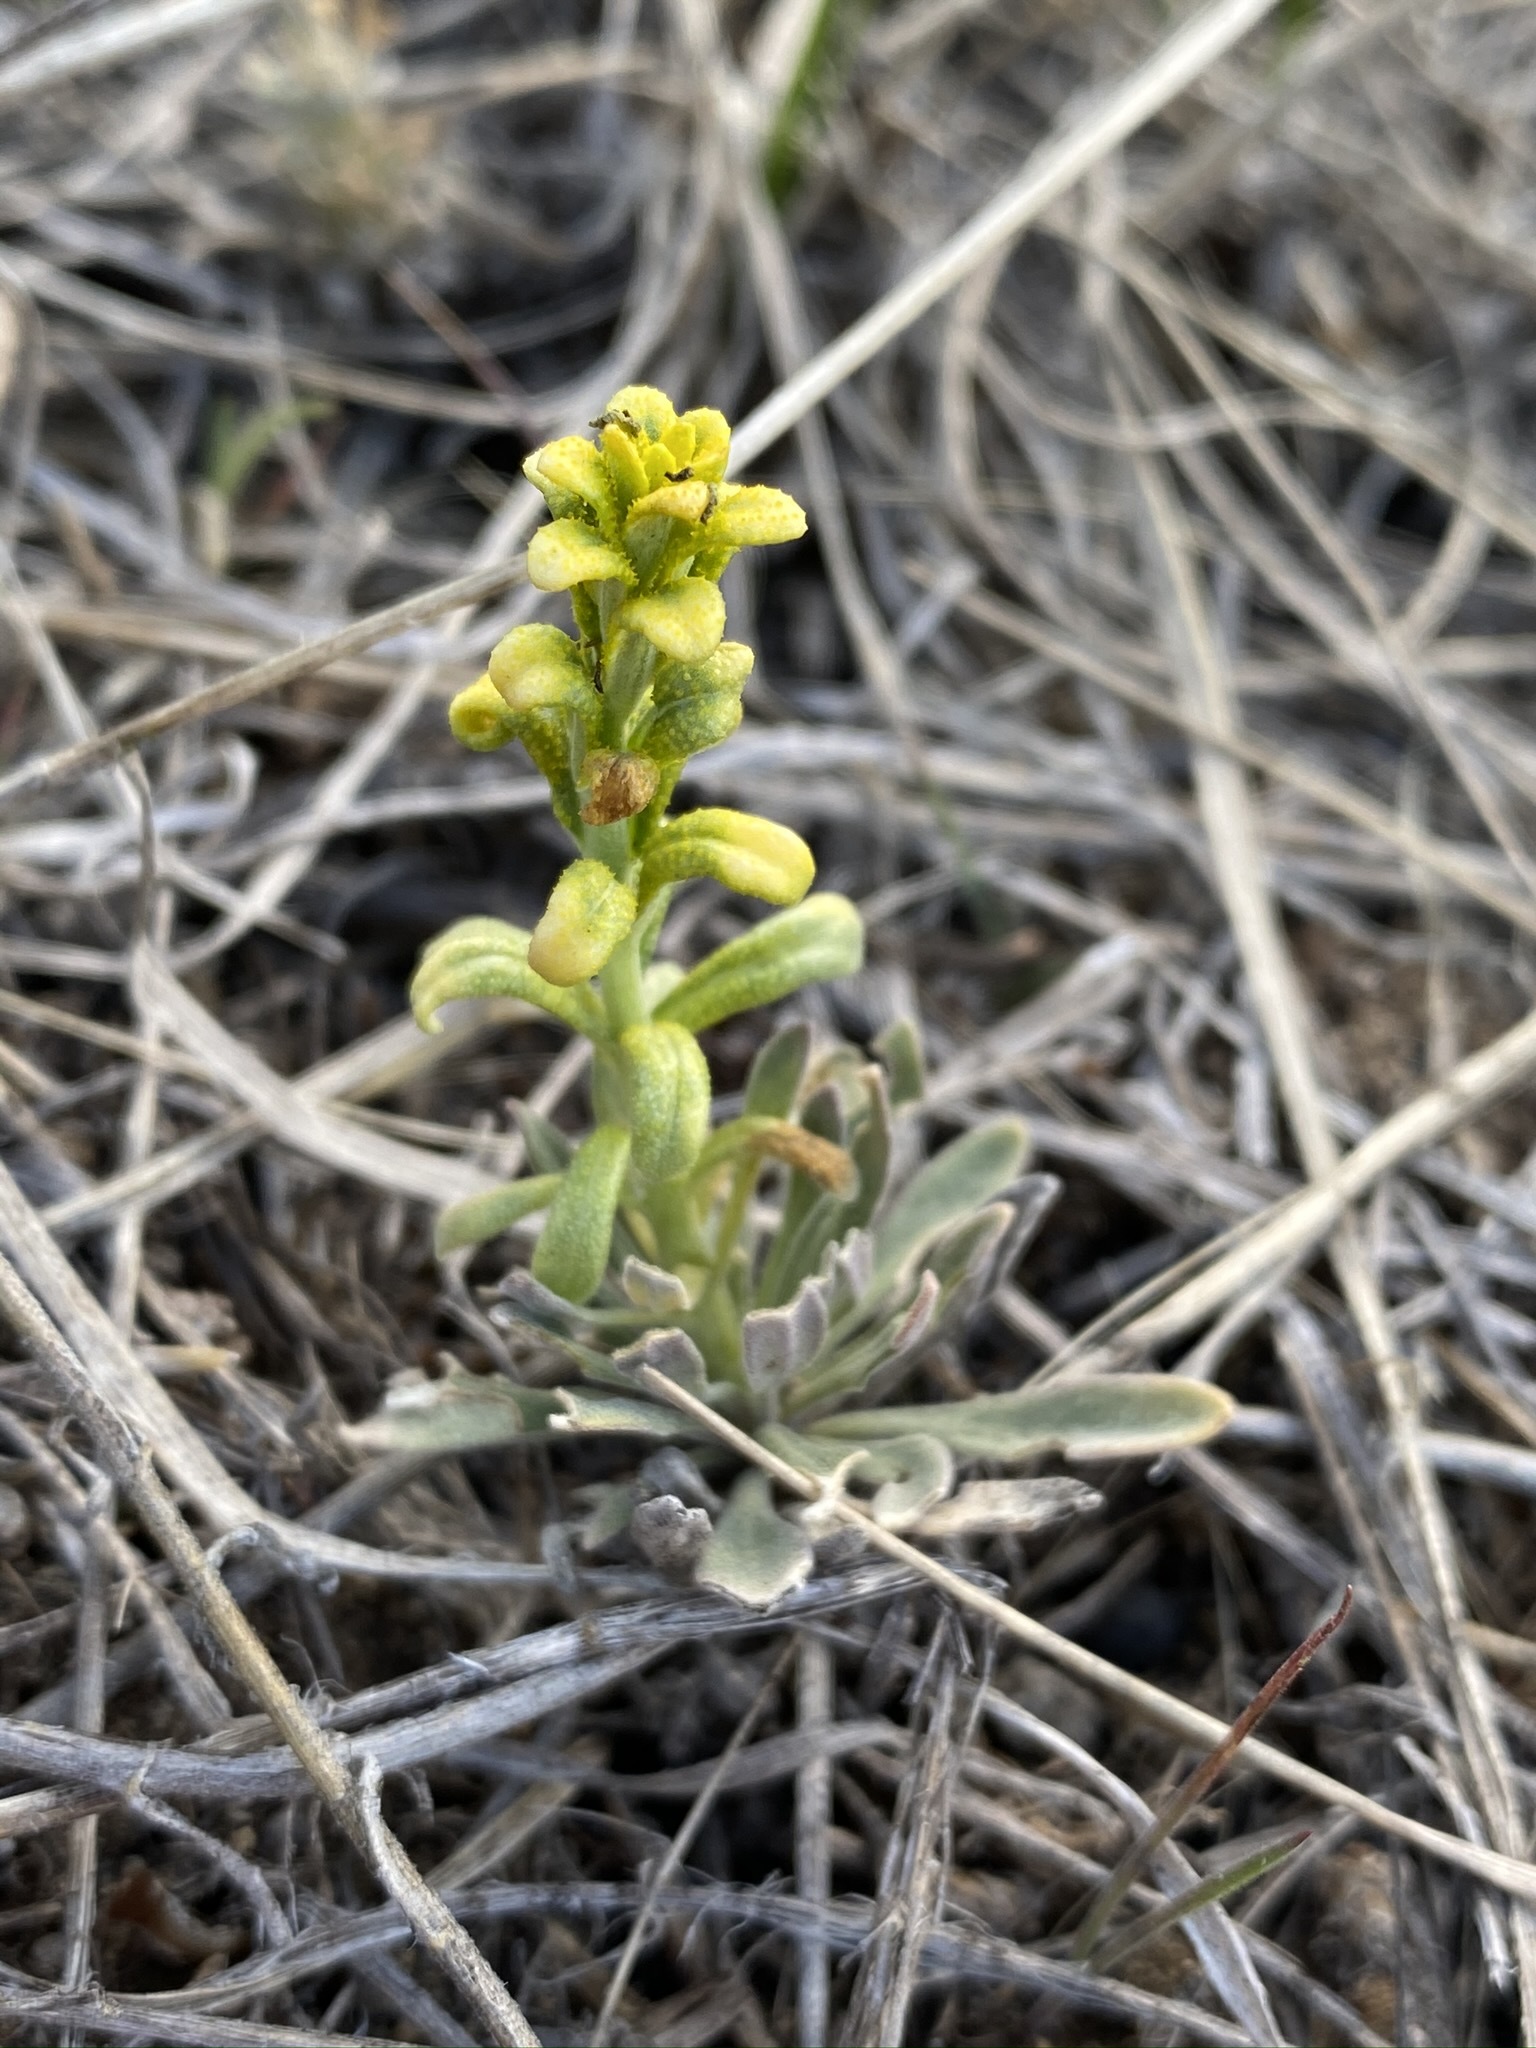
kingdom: Fungi
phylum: Basidiomycota
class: Pucciniomycetes
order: Pucciniales
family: Pucciniaceae
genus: Puccinia
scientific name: Puccinia monoica
